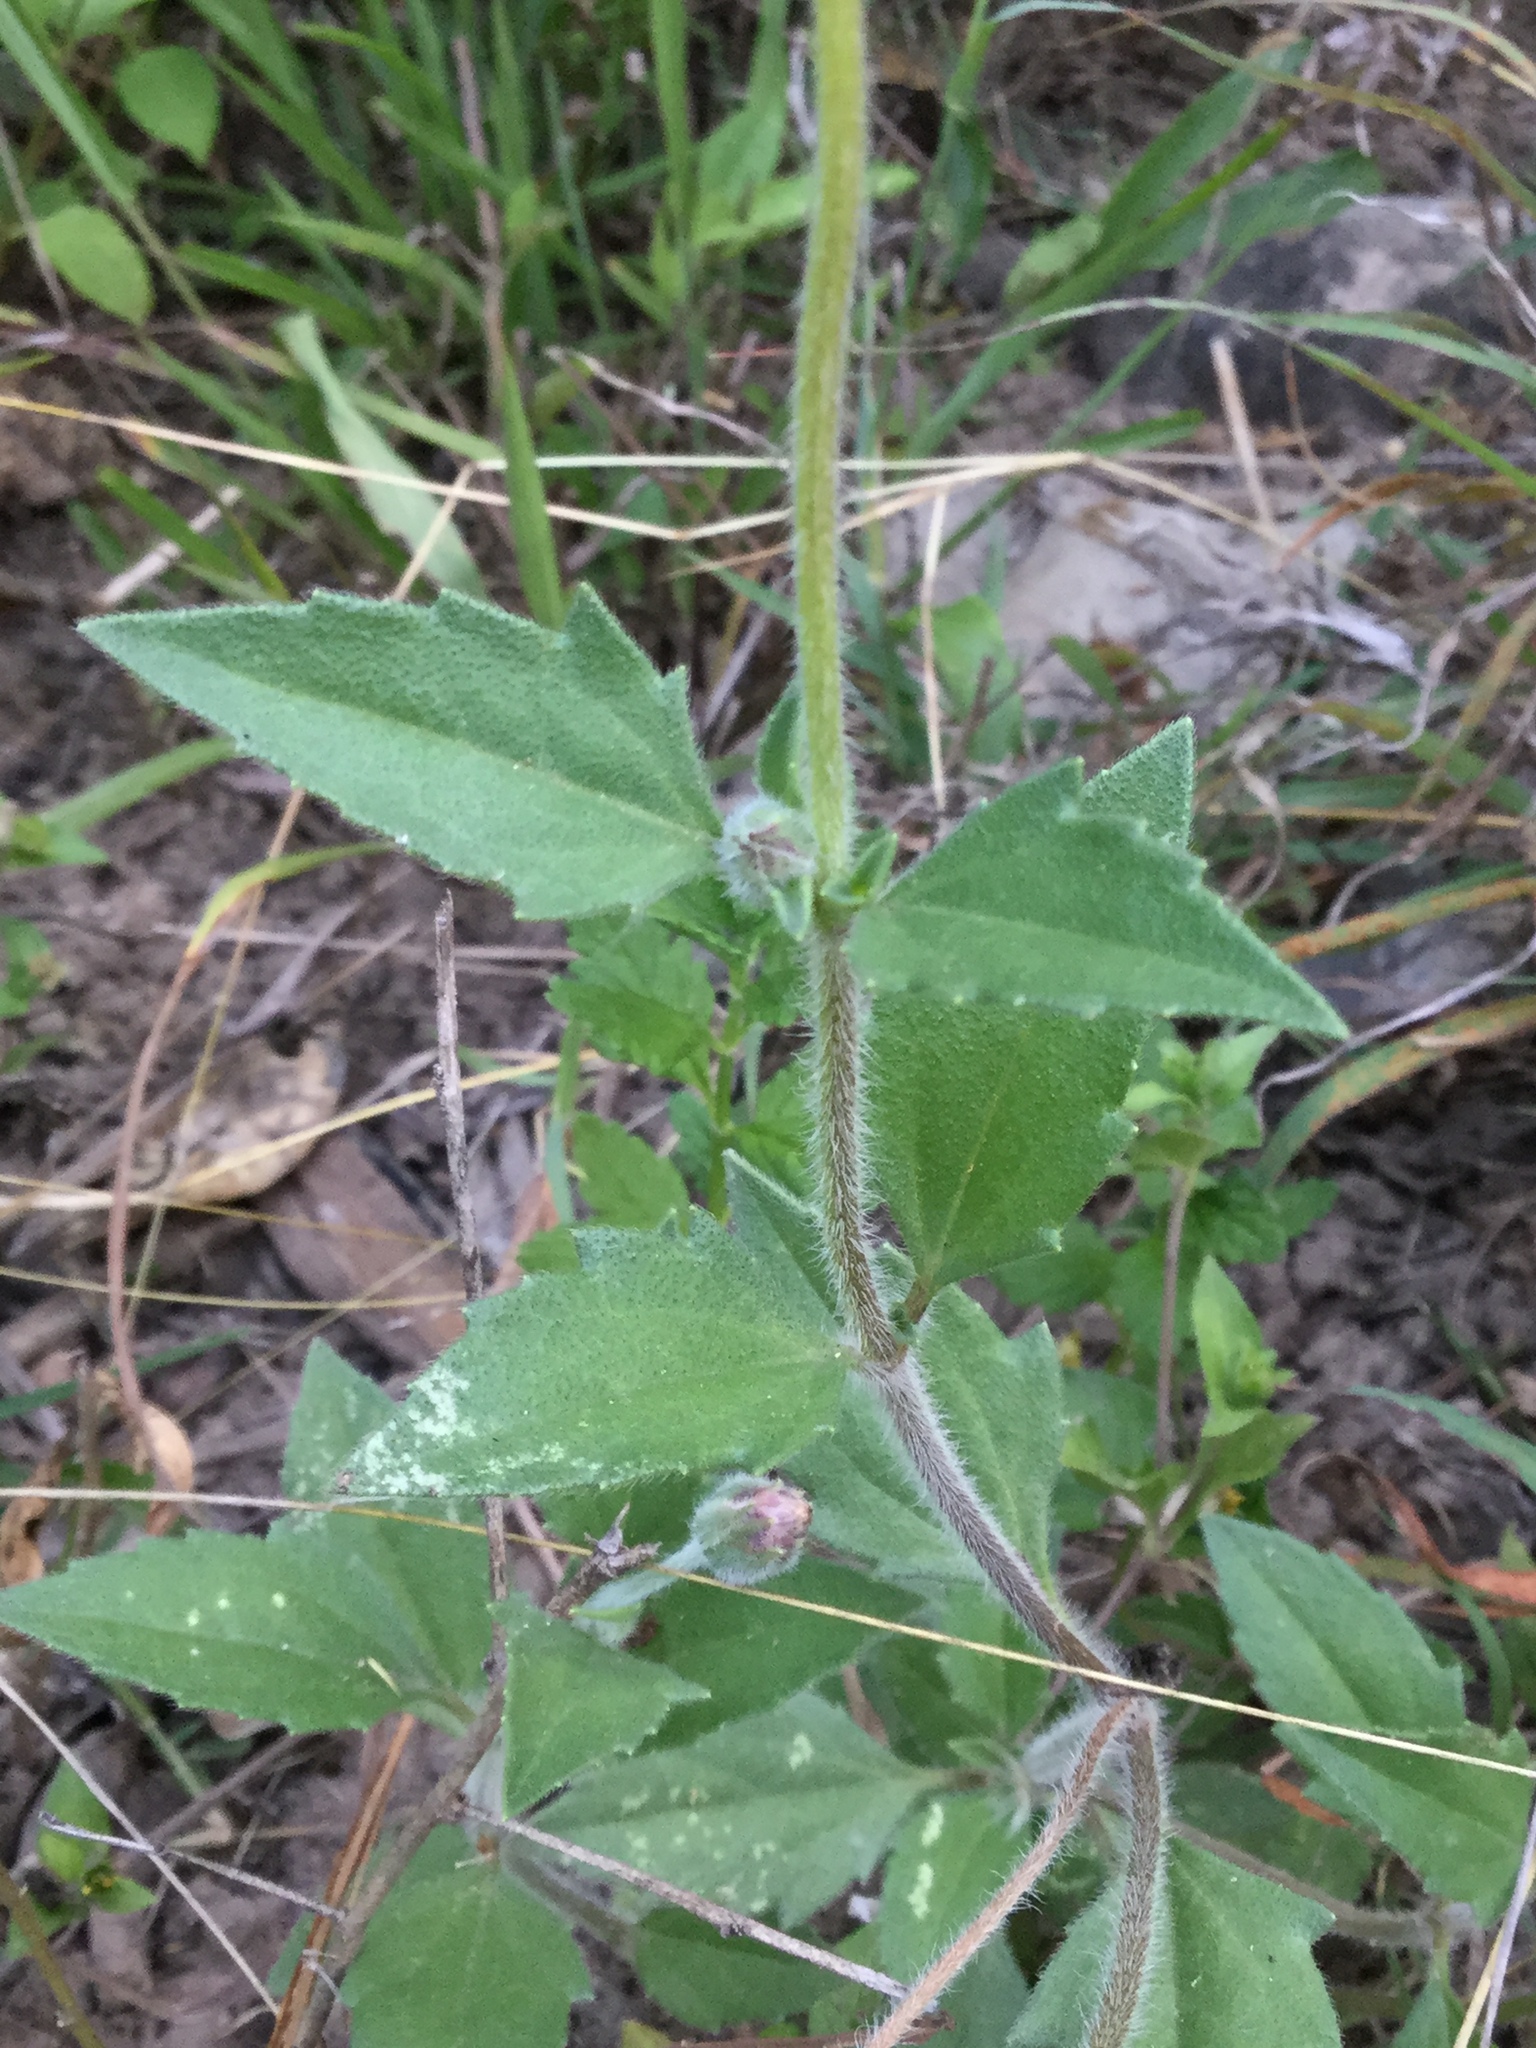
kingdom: Plantae
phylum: Tracheophyta
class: Magnoliopsida
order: Asterales
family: Asteraceae
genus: Tridax
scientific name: Tridax procumbens
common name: Coatbuttons
